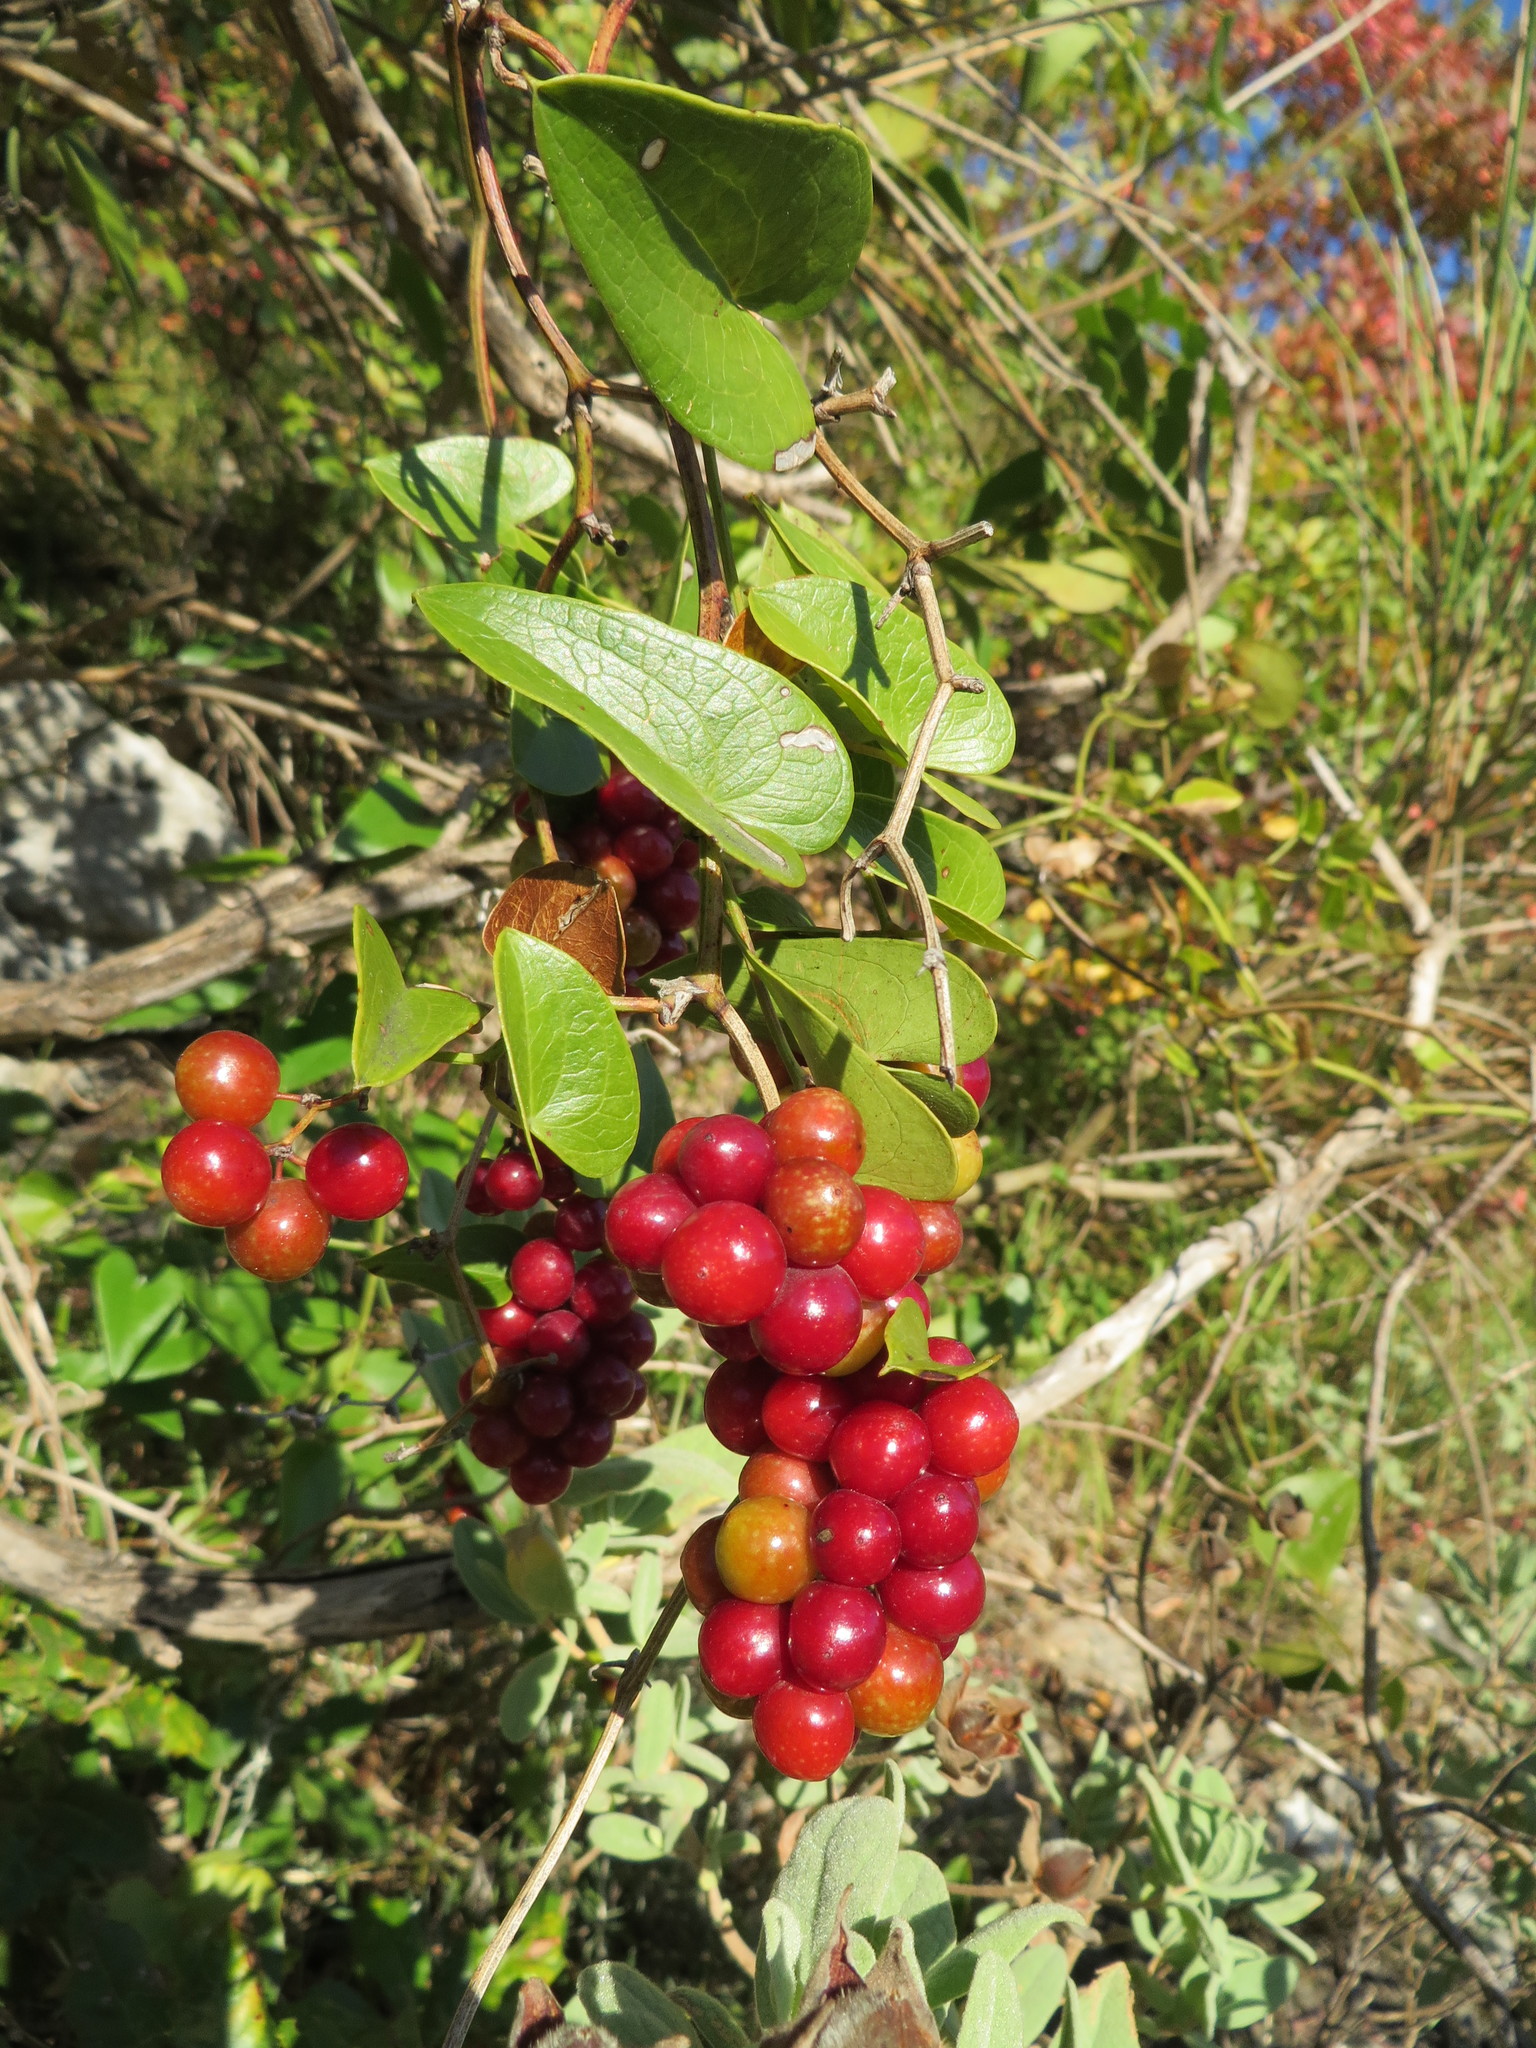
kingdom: Plantae
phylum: Tracheophyta
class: Liliopsida
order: Liliales
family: Smilacaceae
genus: Smilax
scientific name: Smilax aspera
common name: Common smilax
